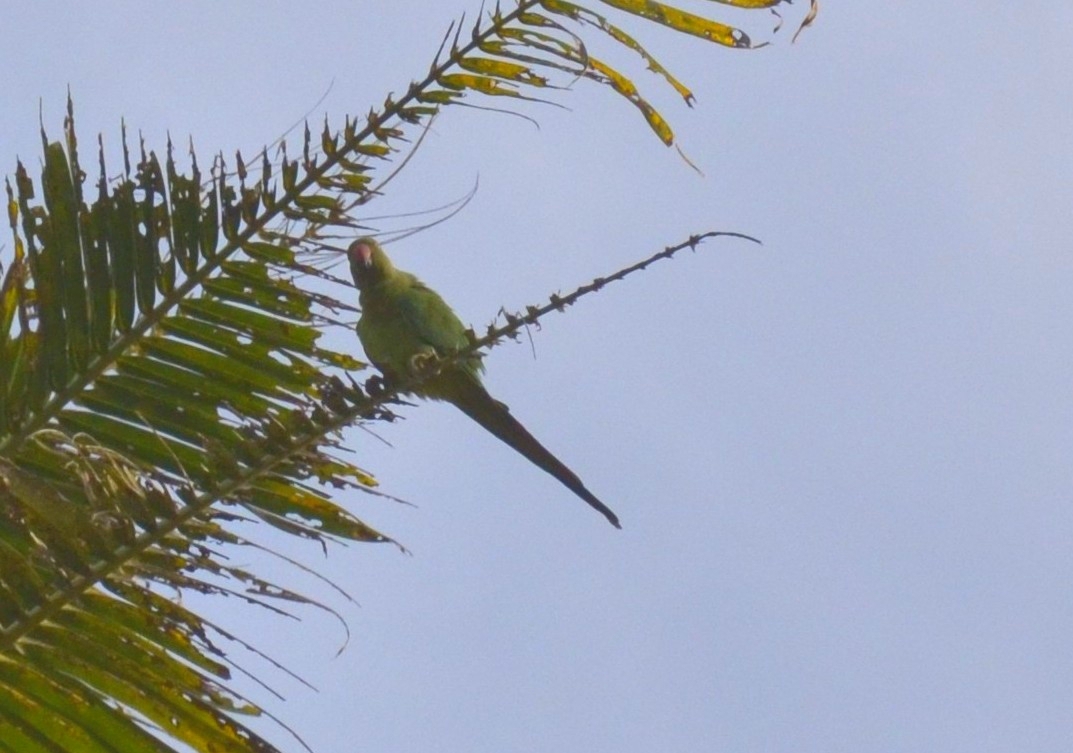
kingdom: Animalia
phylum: Chordata
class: Aves
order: Psittaciformes
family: Psittacidae
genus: Psittacula
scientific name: Psittacula krameri
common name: Rose-ringed parakeet
